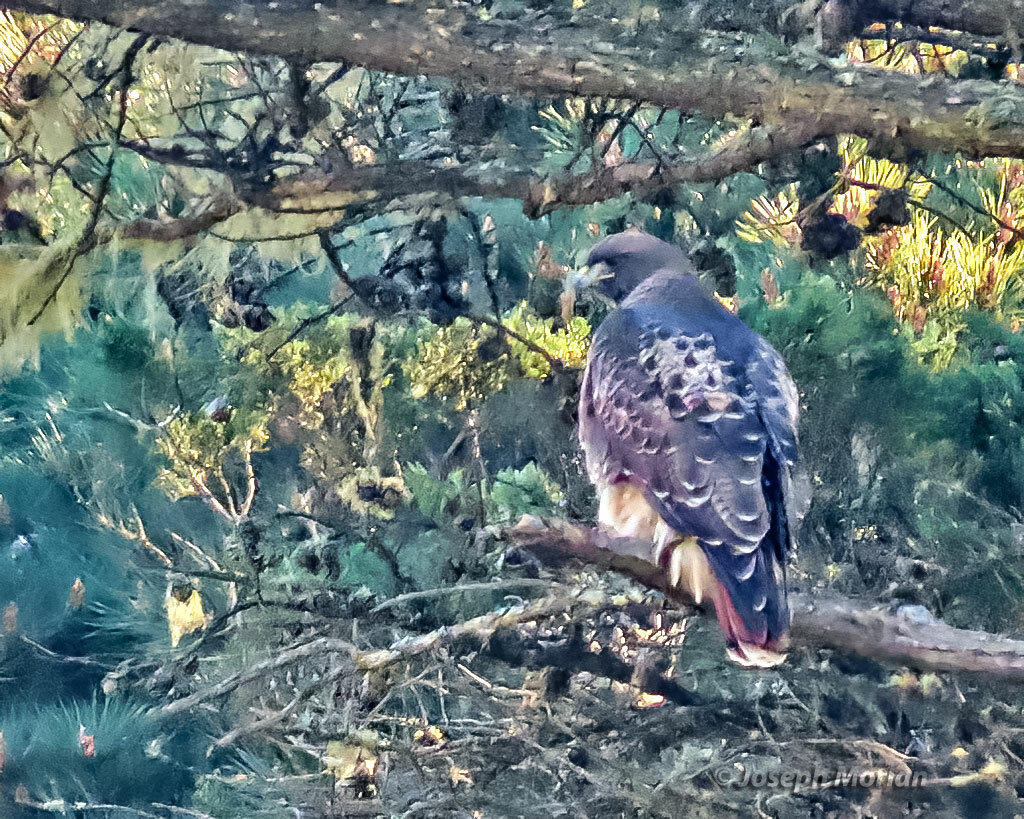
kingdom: Animalia
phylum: Chordata
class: Aves
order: Accipitriformes
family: Accipitridae
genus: Buteo
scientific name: Buteo jamaicensis
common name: Red-tailed hawk
